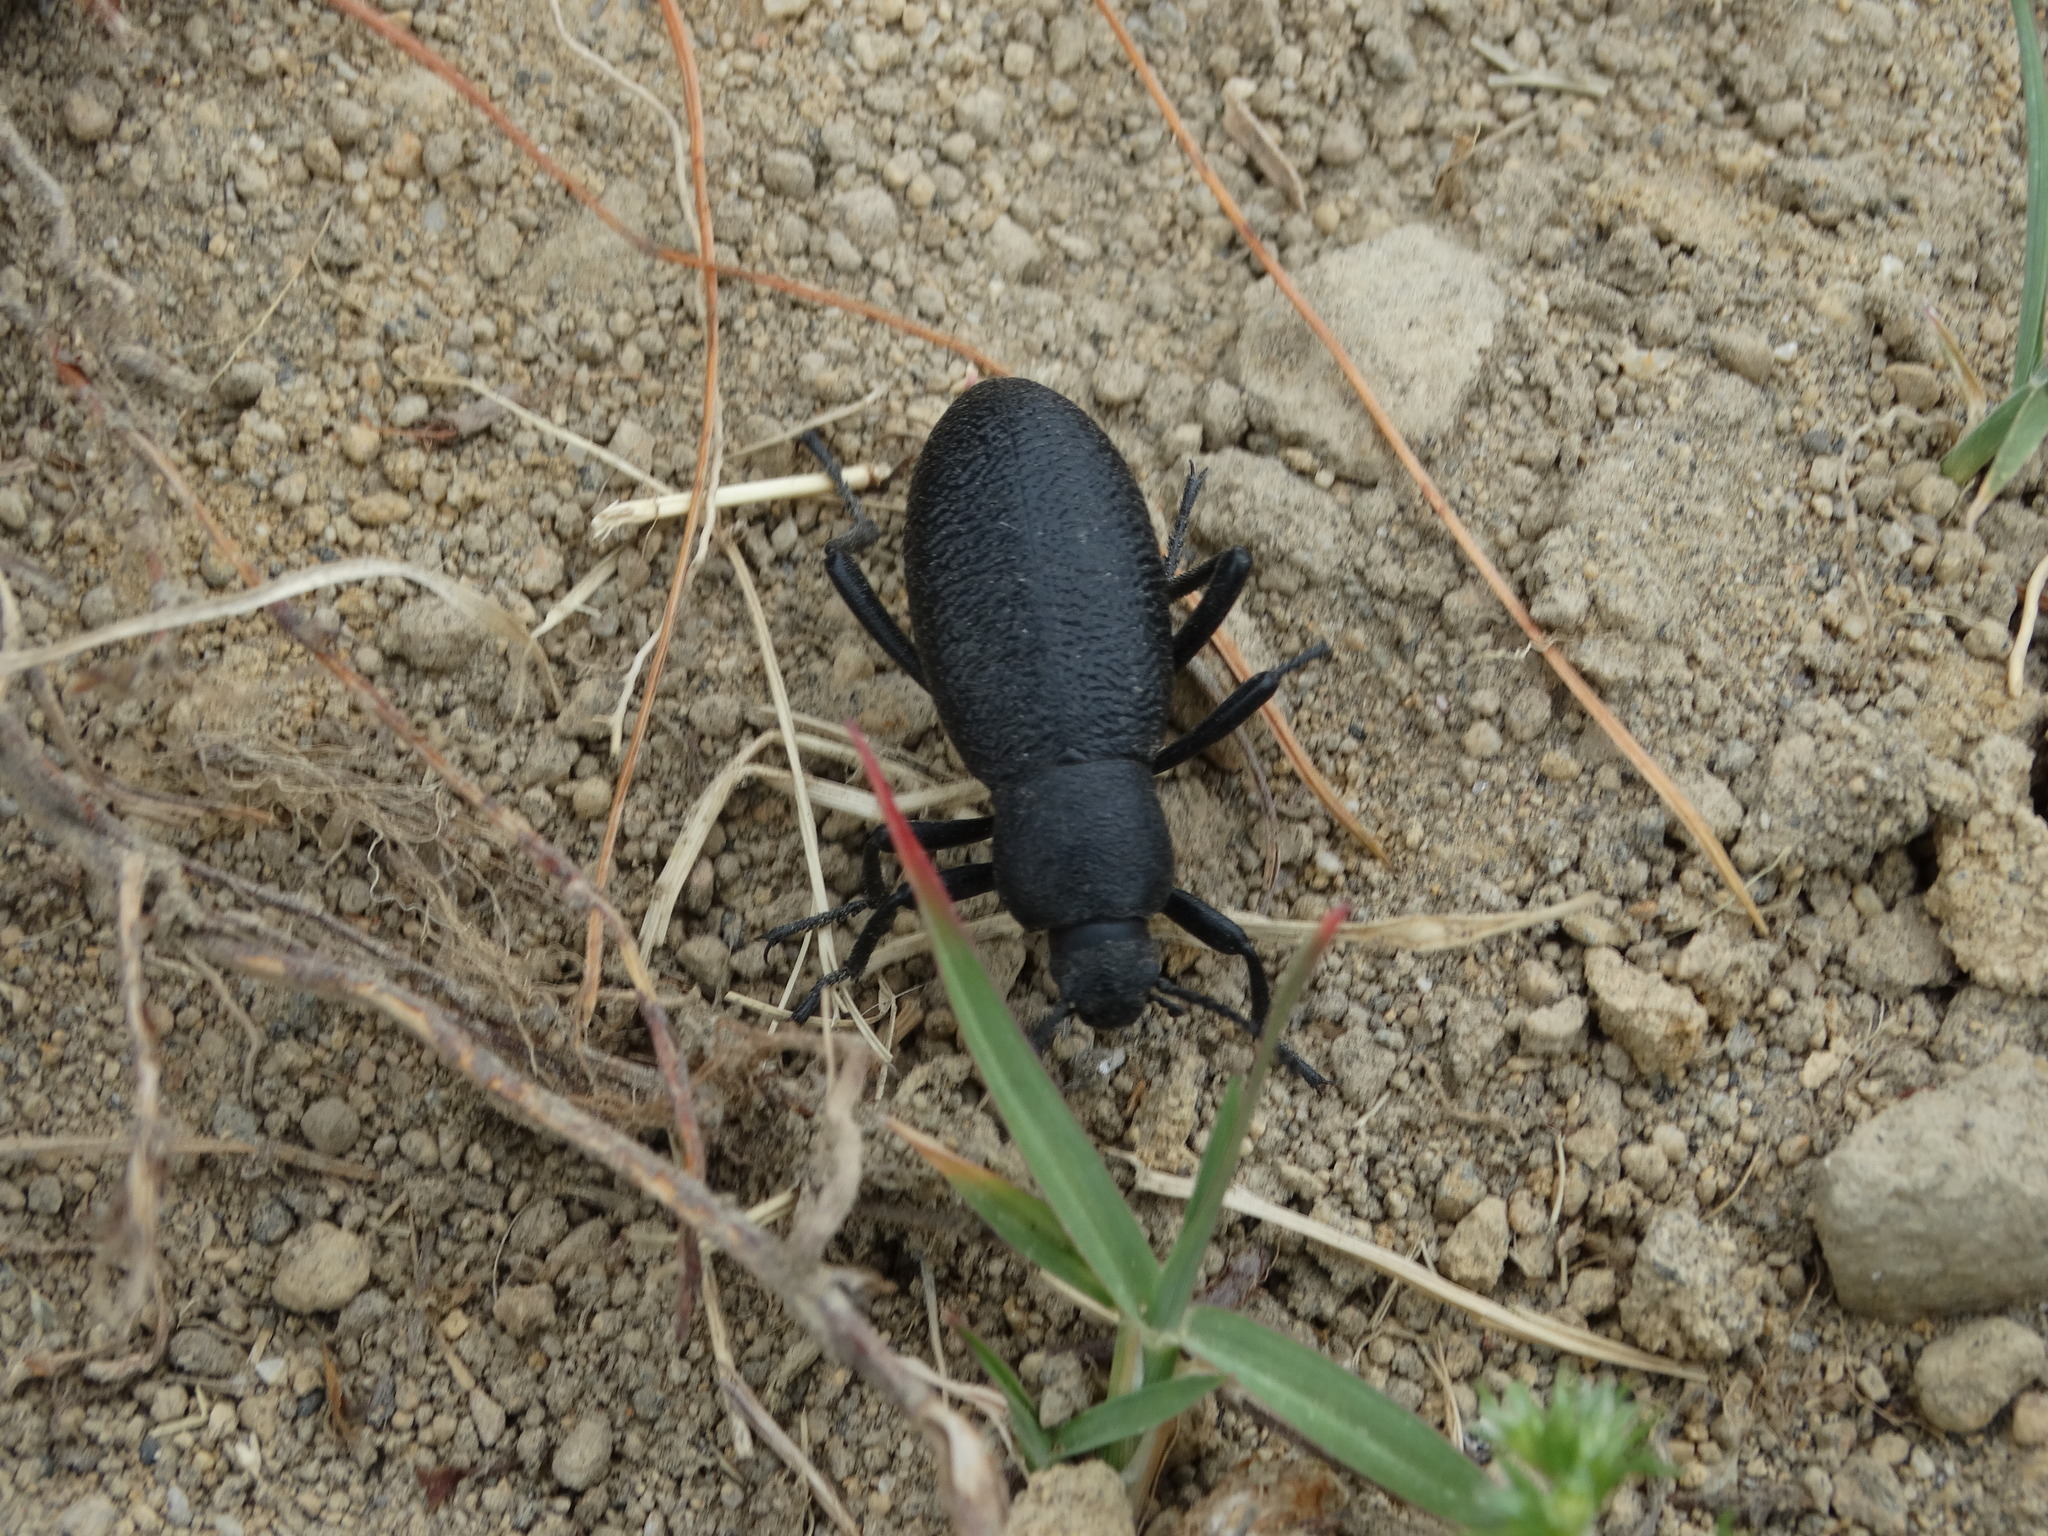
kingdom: Animalia
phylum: Arthropoda
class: Insecta
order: Coleoptera
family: Tenebrionidae
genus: Eleodes
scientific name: Eleodes ruida
